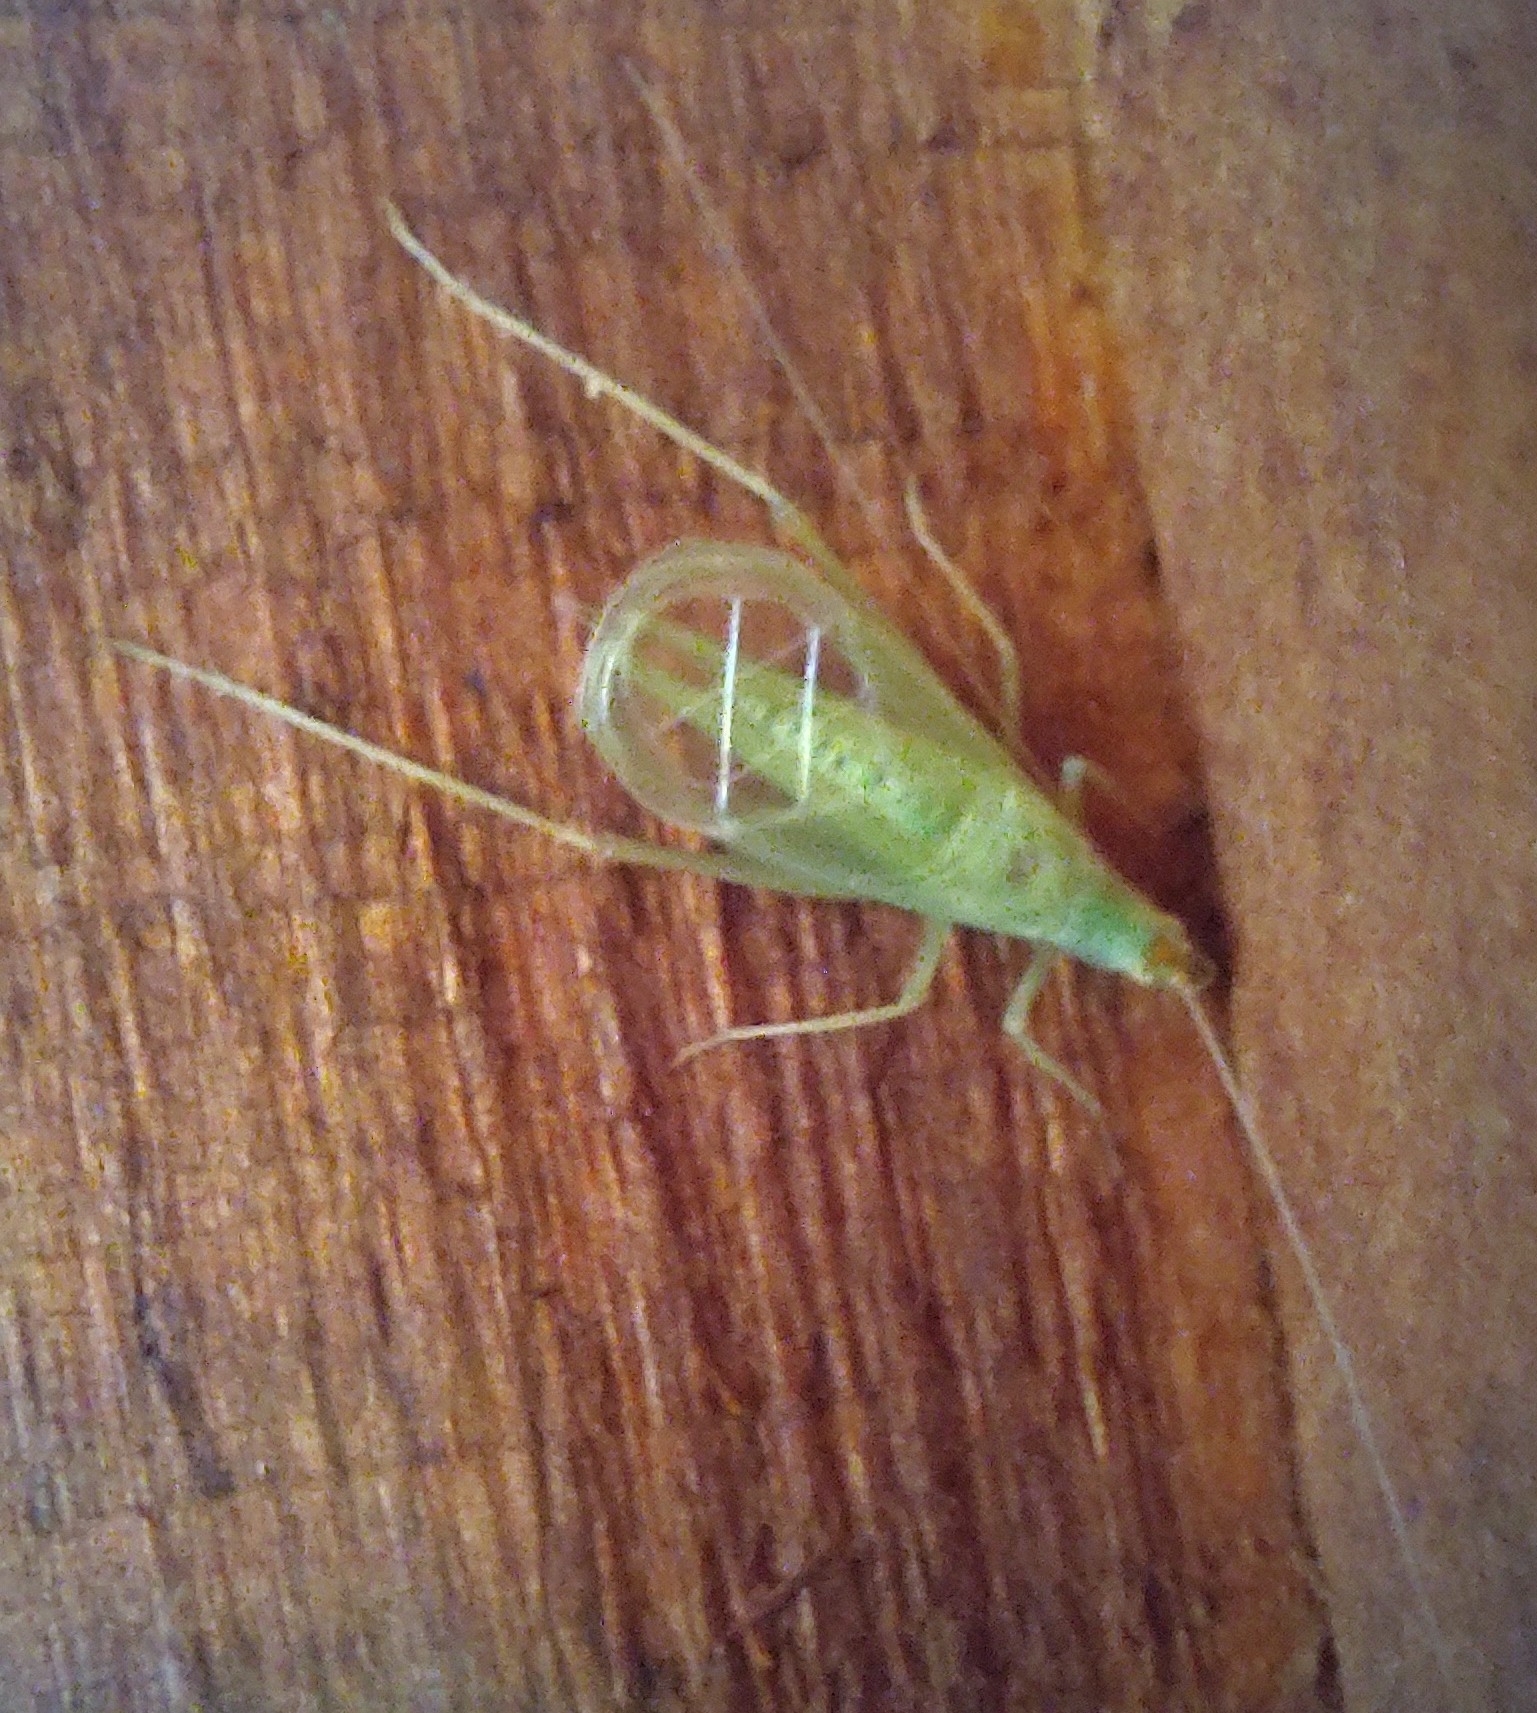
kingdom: Animalia
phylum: Arthropoda
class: Insecta
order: Orthoptera
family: Gryllidae
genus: Oecanthus
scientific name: Oecanthus fultoni
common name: Snowy tree cricket
